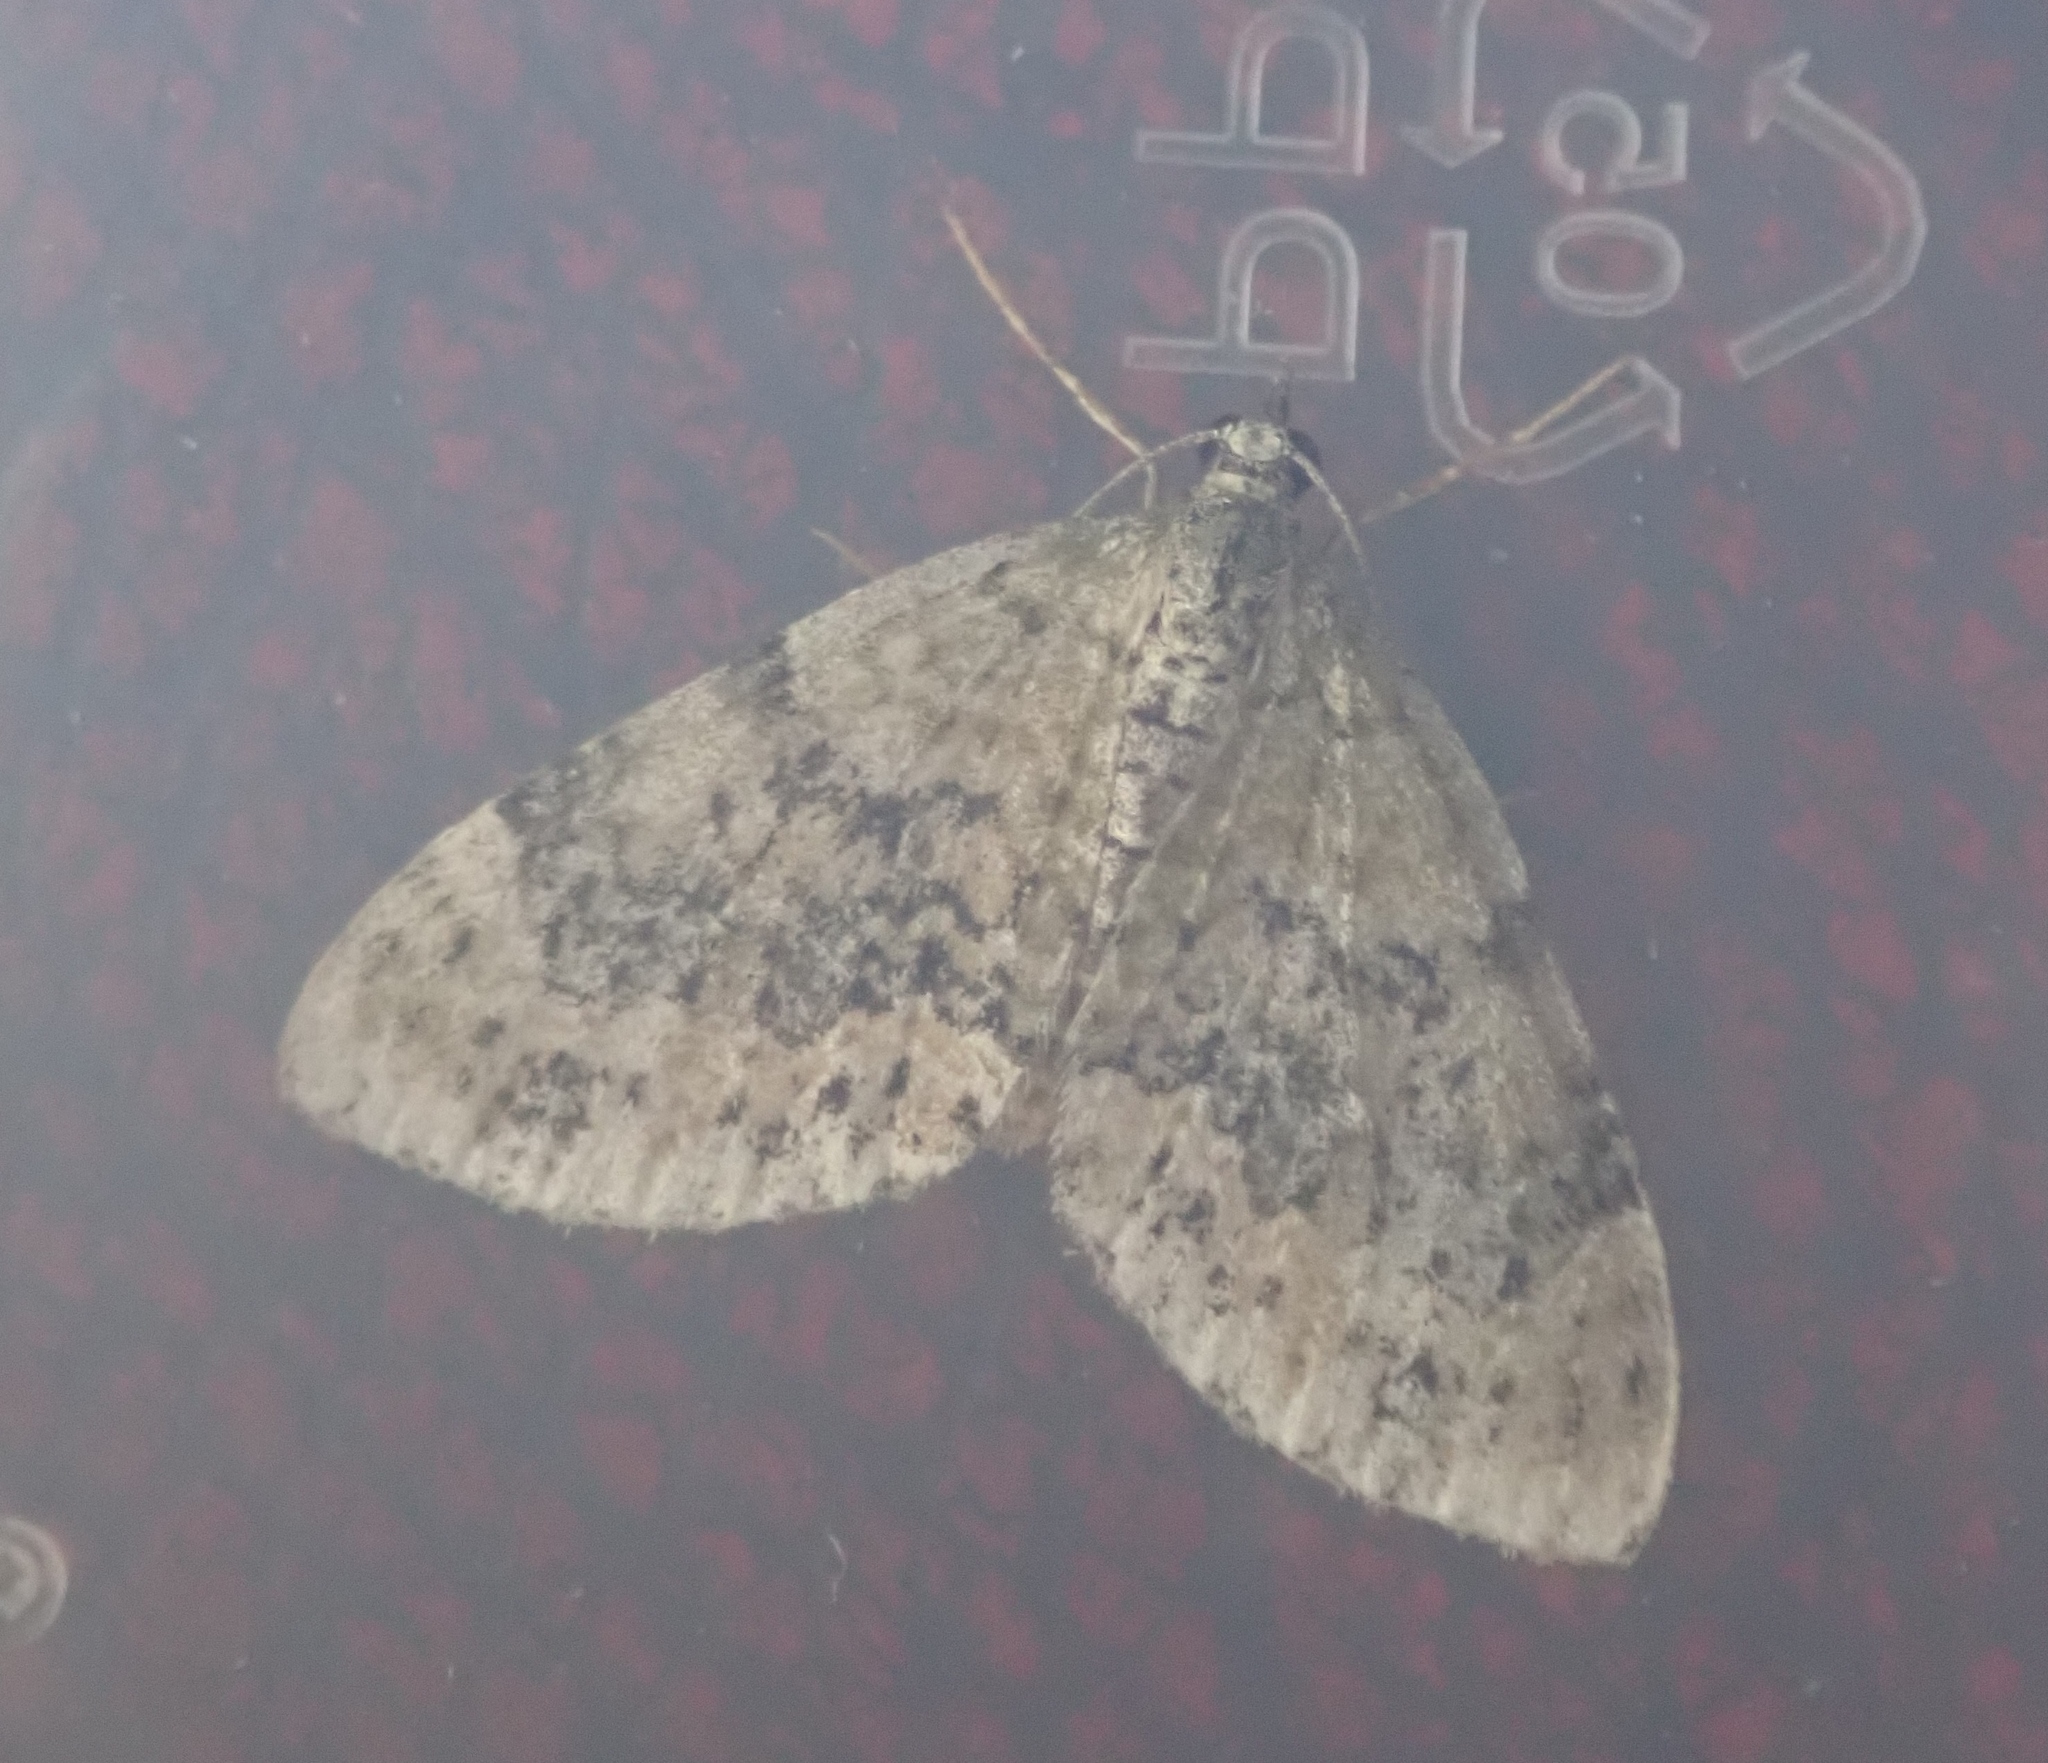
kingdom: Animalia
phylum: Arthropoda
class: Insecta
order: Lepidoptera
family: Geometridae
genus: Acasis
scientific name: Acasis viretata
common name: Yellow-barred brindle
